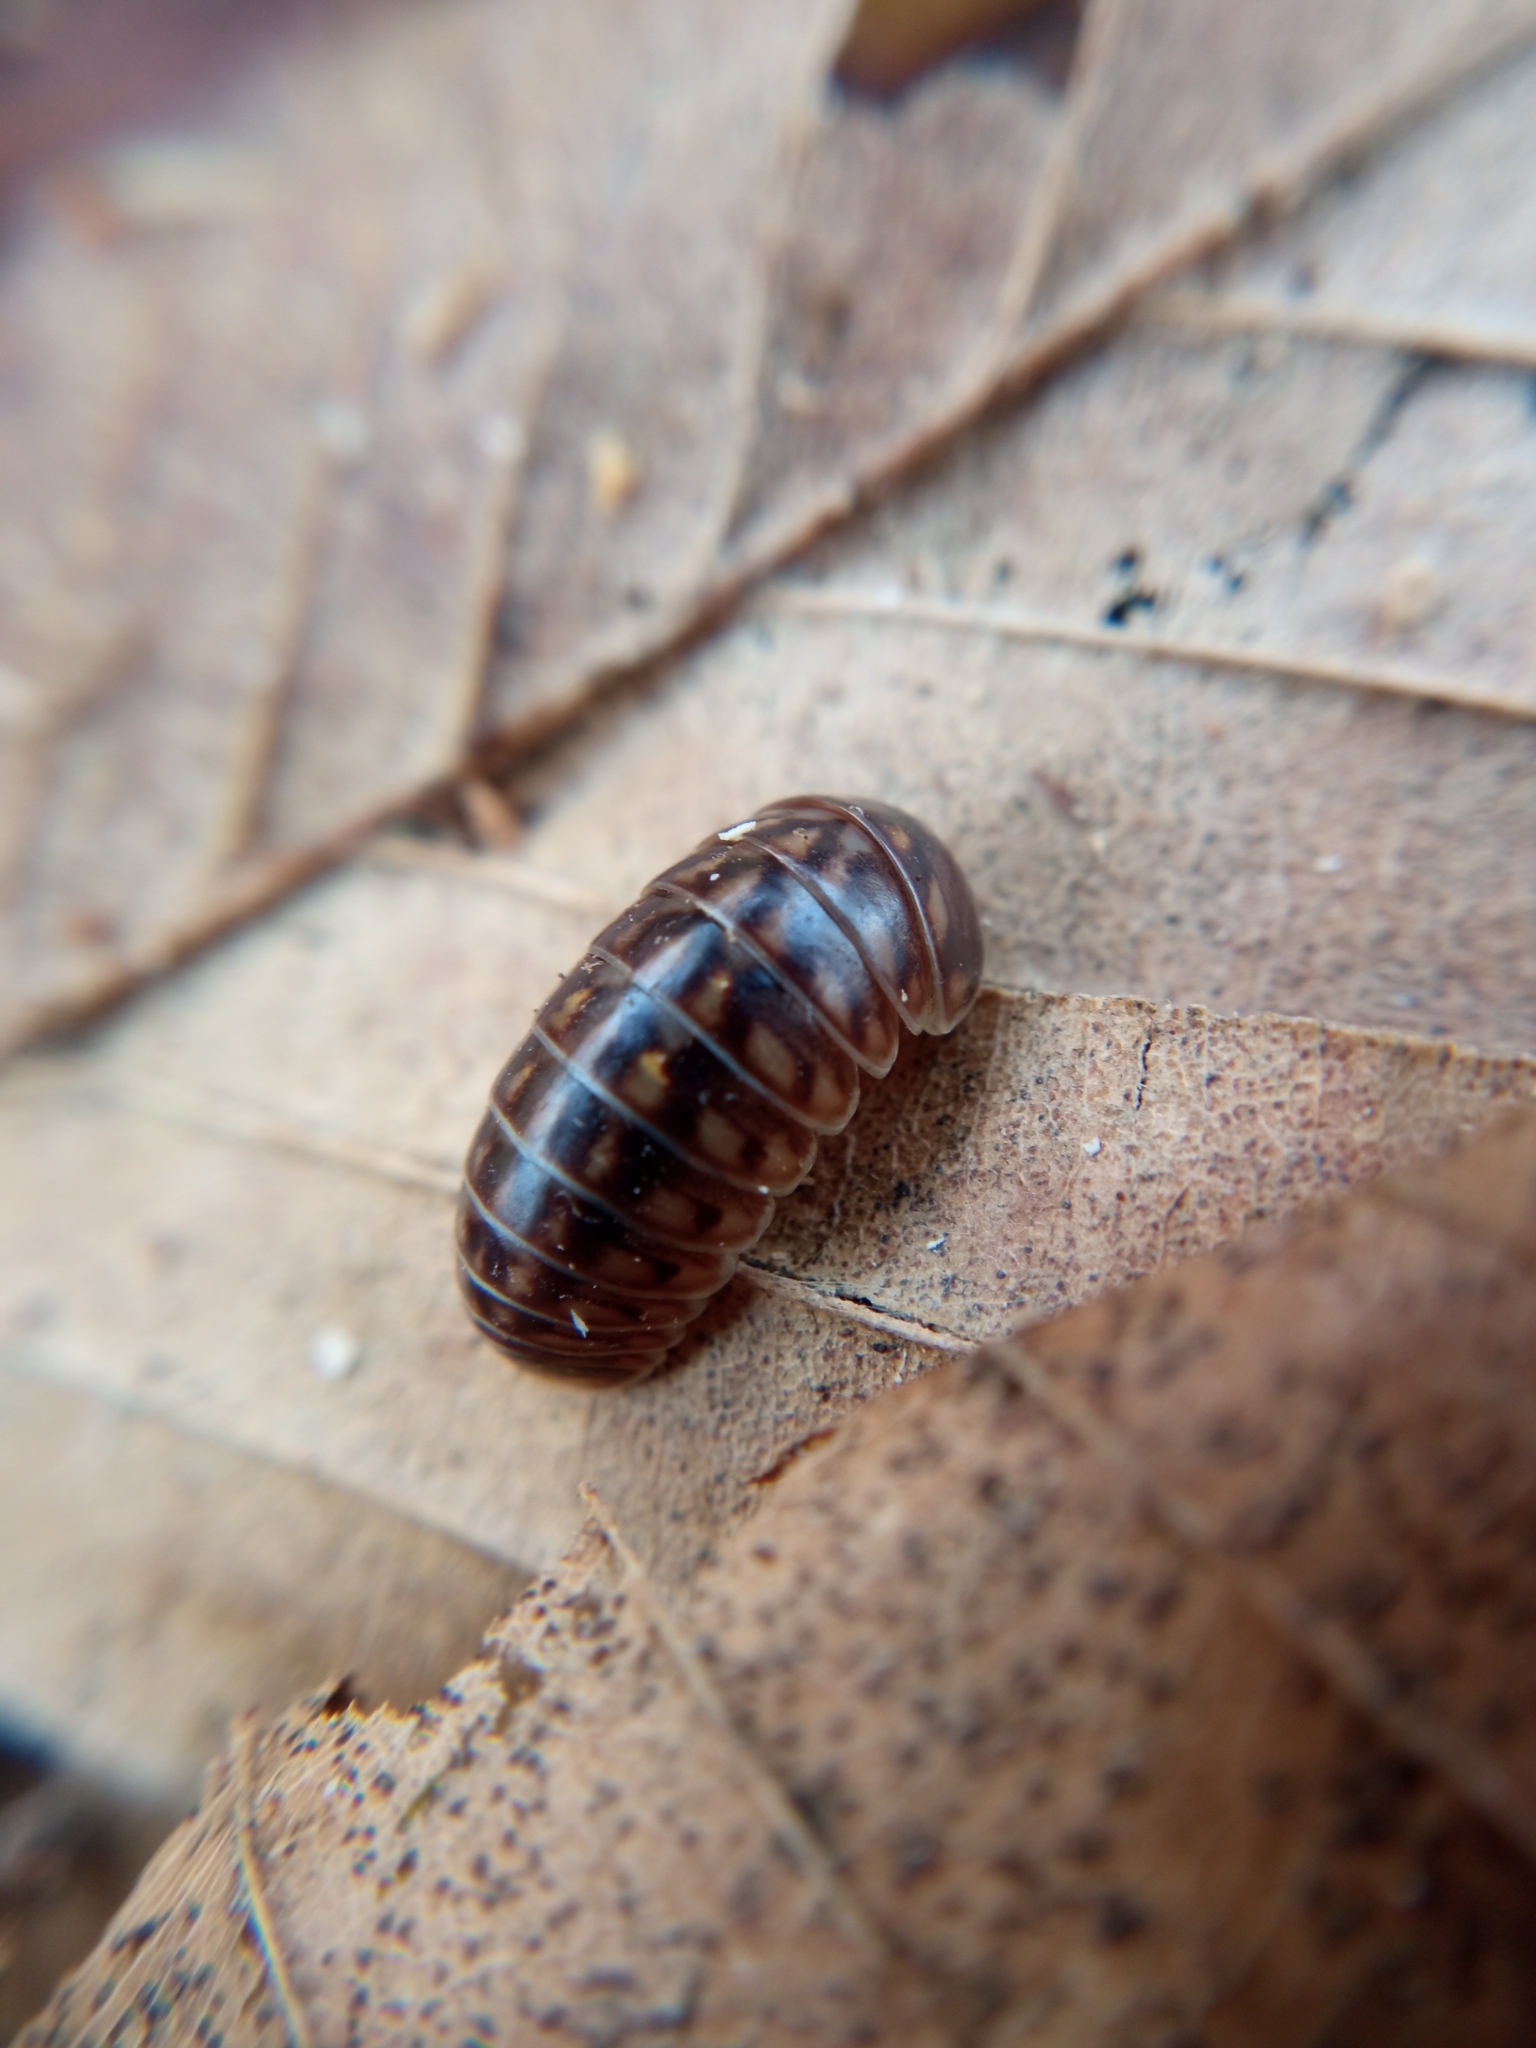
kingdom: Animalia
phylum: Arthropoda
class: Diplopoda
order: Glomerida
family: Glomeridae
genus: Glomeris
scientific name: Glomeris intermedia
